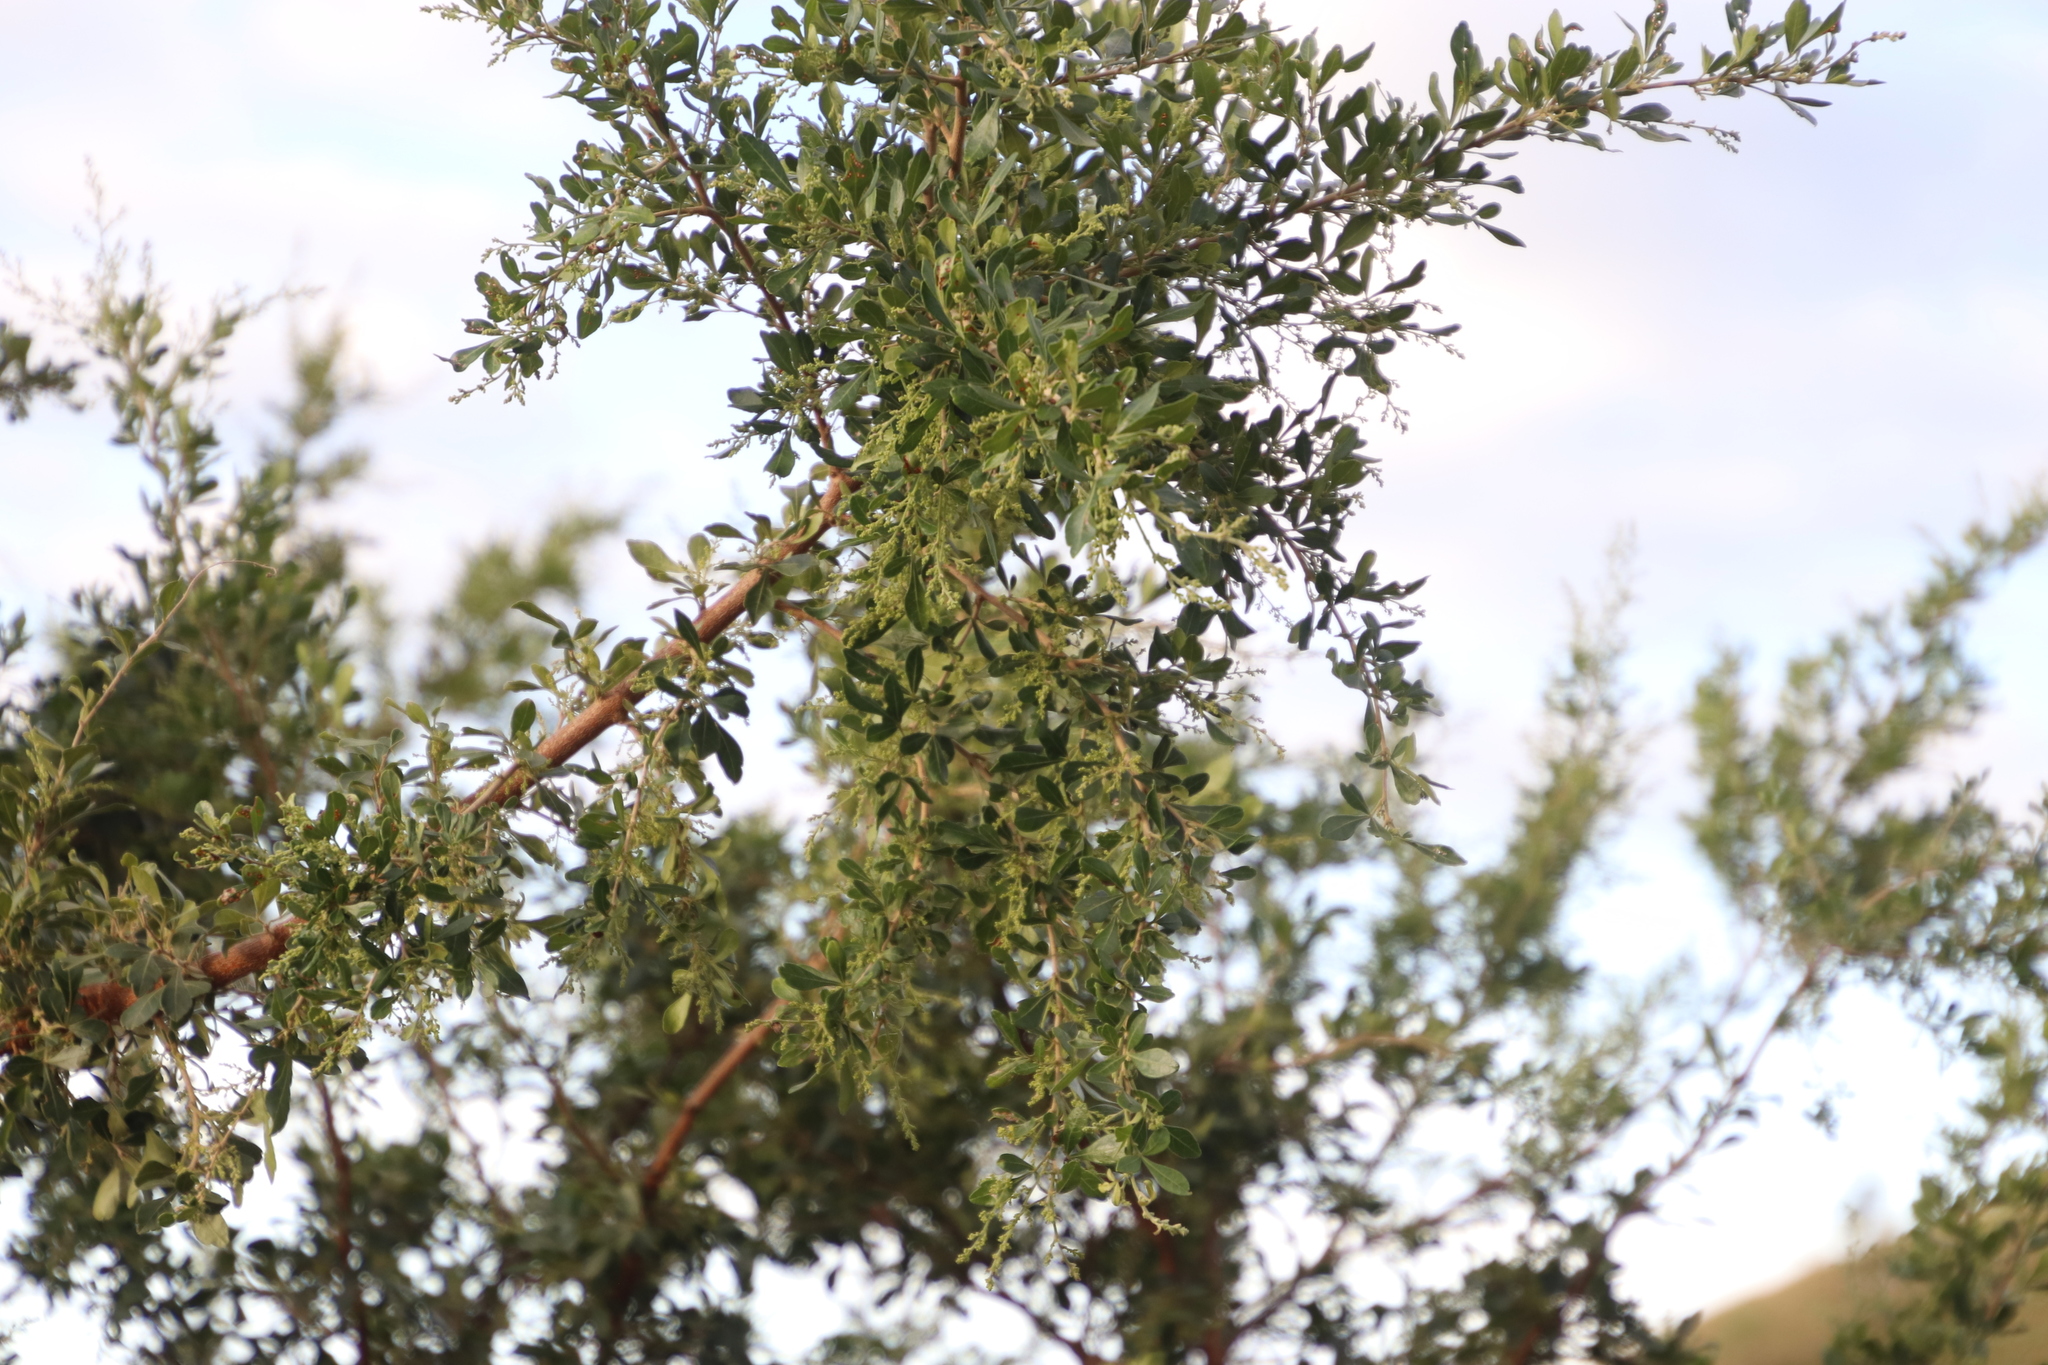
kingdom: Plantae
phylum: Tracheophyta
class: Magnoliopsida
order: Sapindales
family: Anacardiaceae
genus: Searsia
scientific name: Searsia gueinzii
